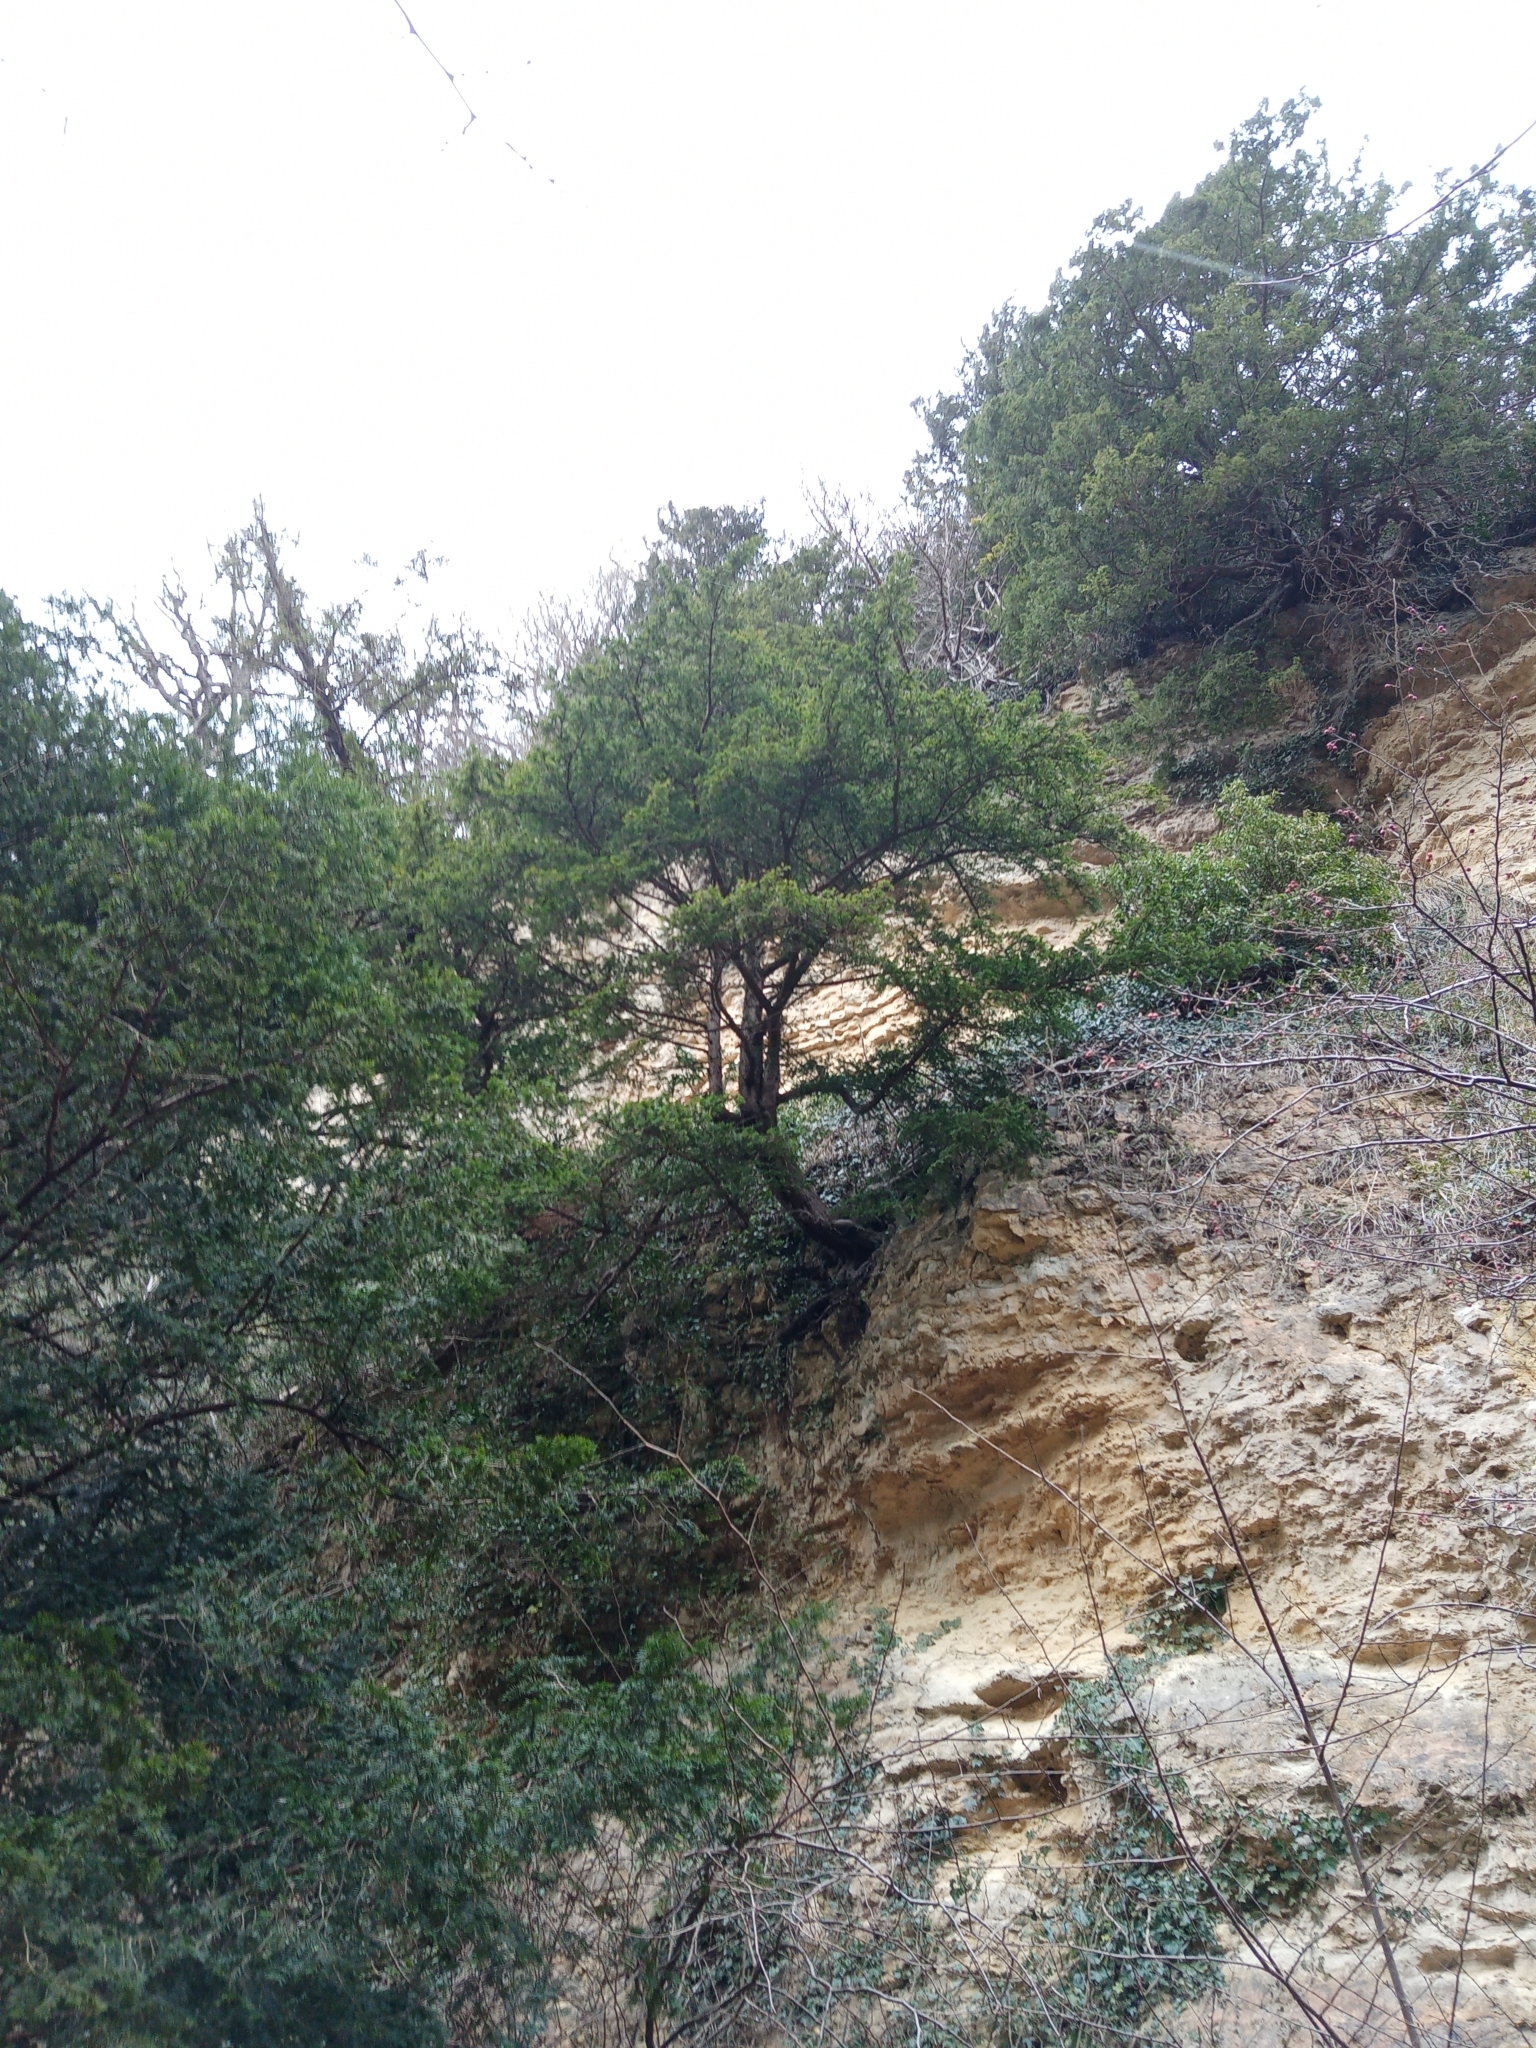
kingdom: Plantae
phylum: Tracheophyta
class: Pinopsida
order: Pinales
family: Taxaceae
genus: Taxus
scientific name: Taxus baccata
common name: Yew
